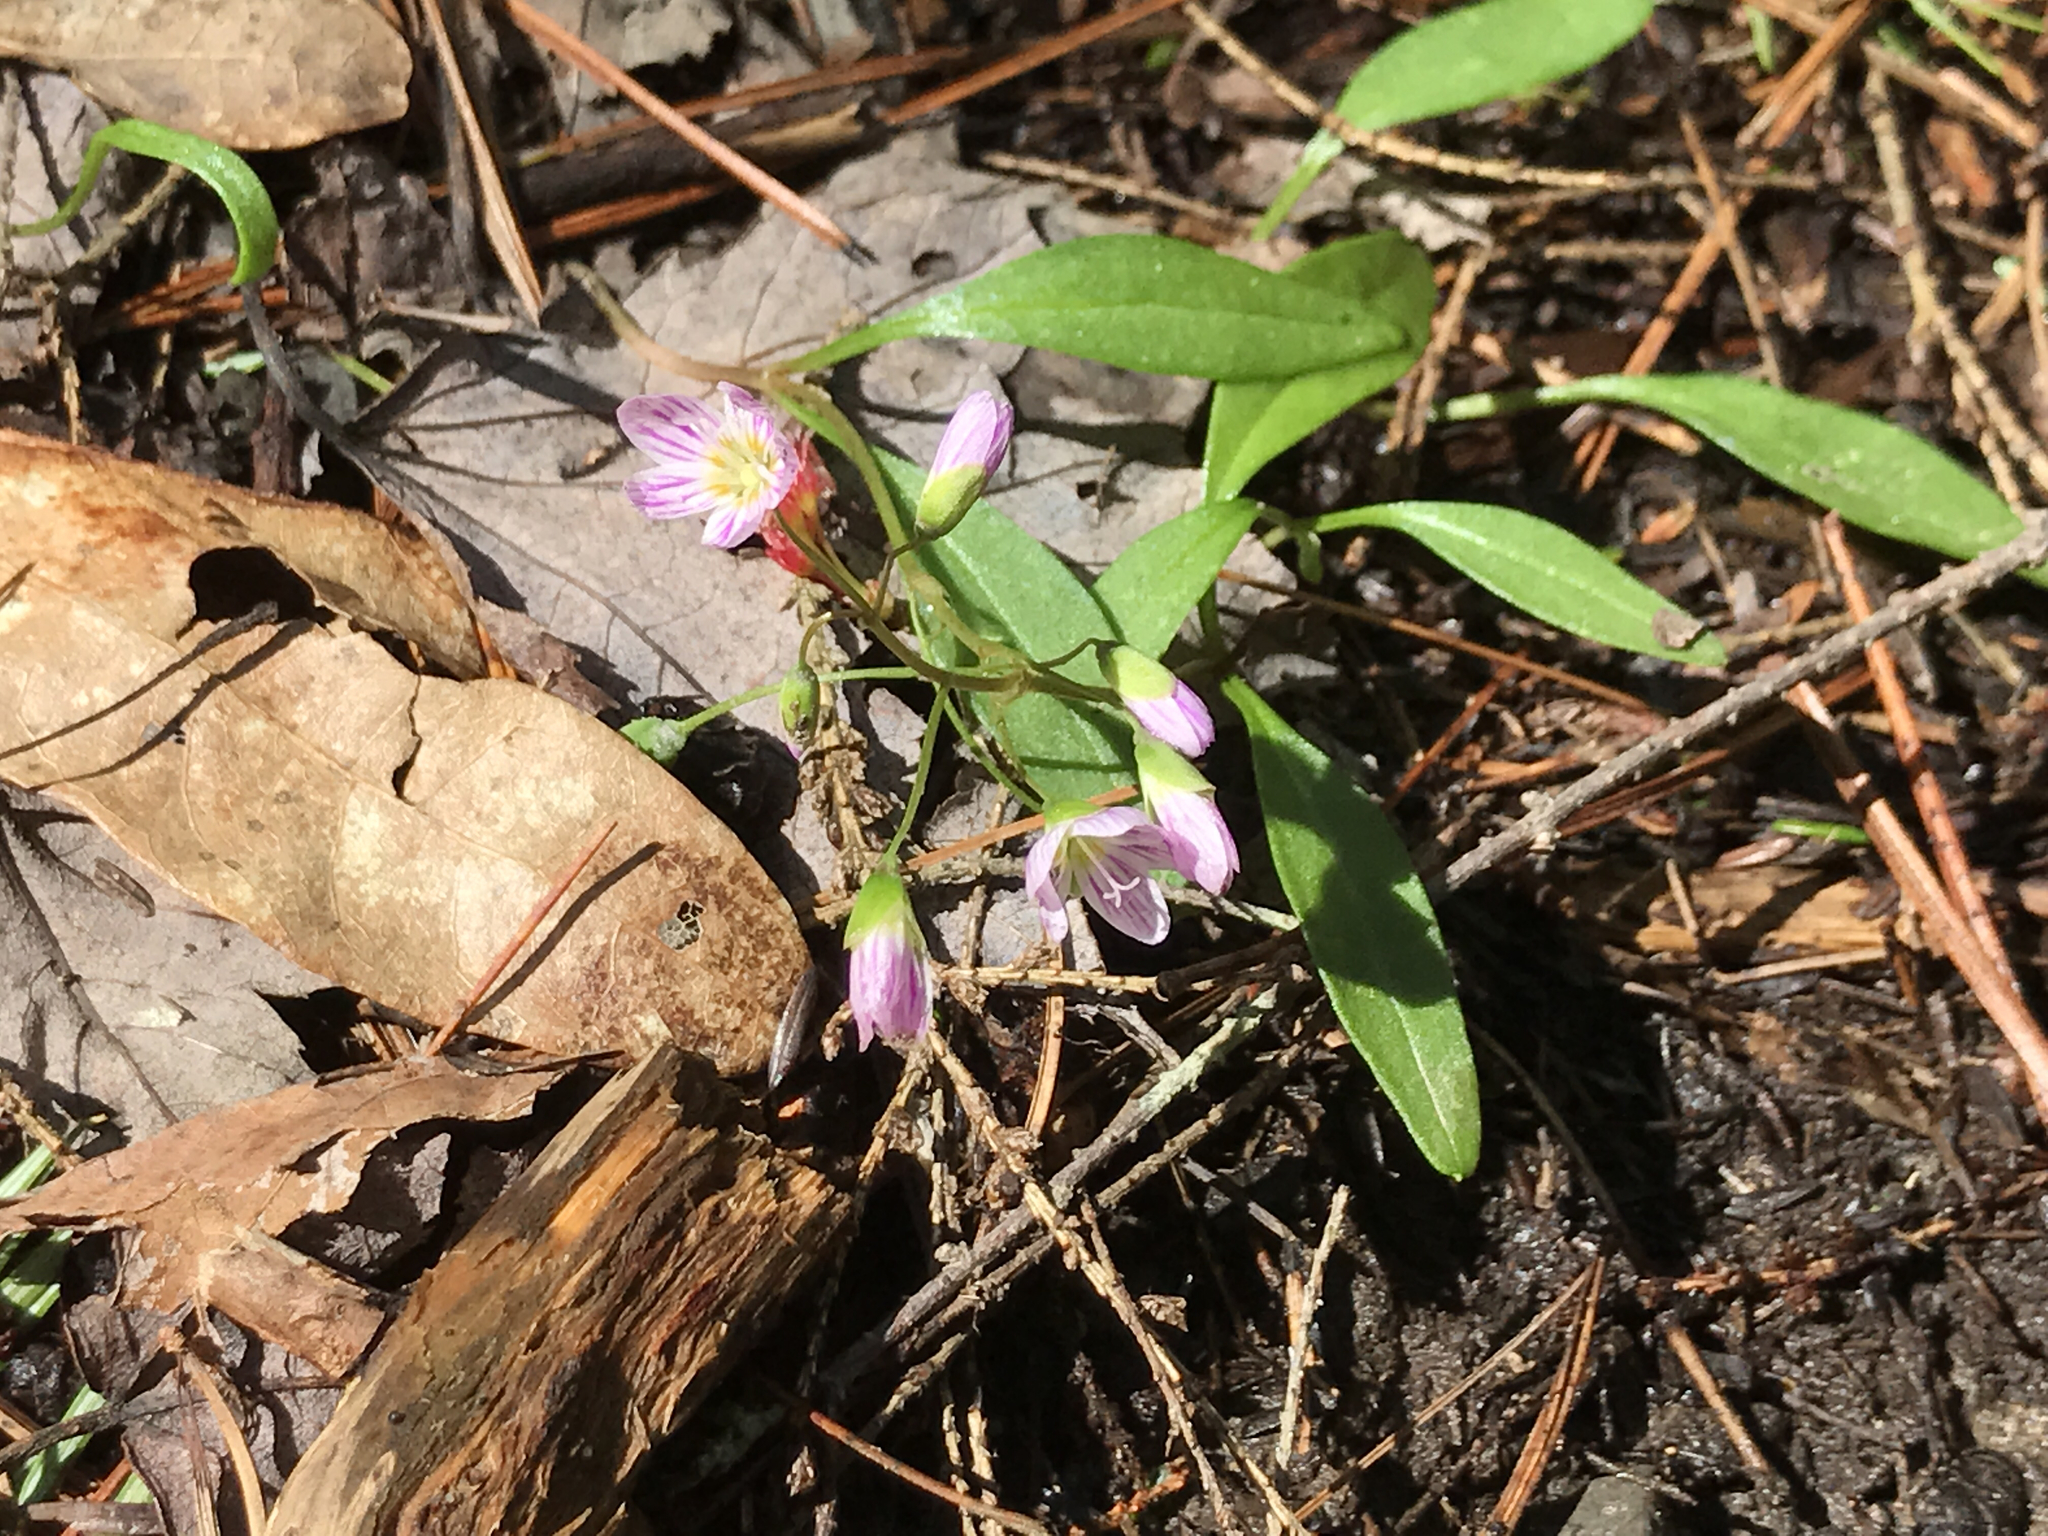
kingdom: Plantae
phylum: Tracheophyta
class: Magnoliopsida
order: Caryophyllales
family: Montiaceae
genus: Claytonia
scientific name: Claytonia caroliniana
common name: Carolina spring beauty
